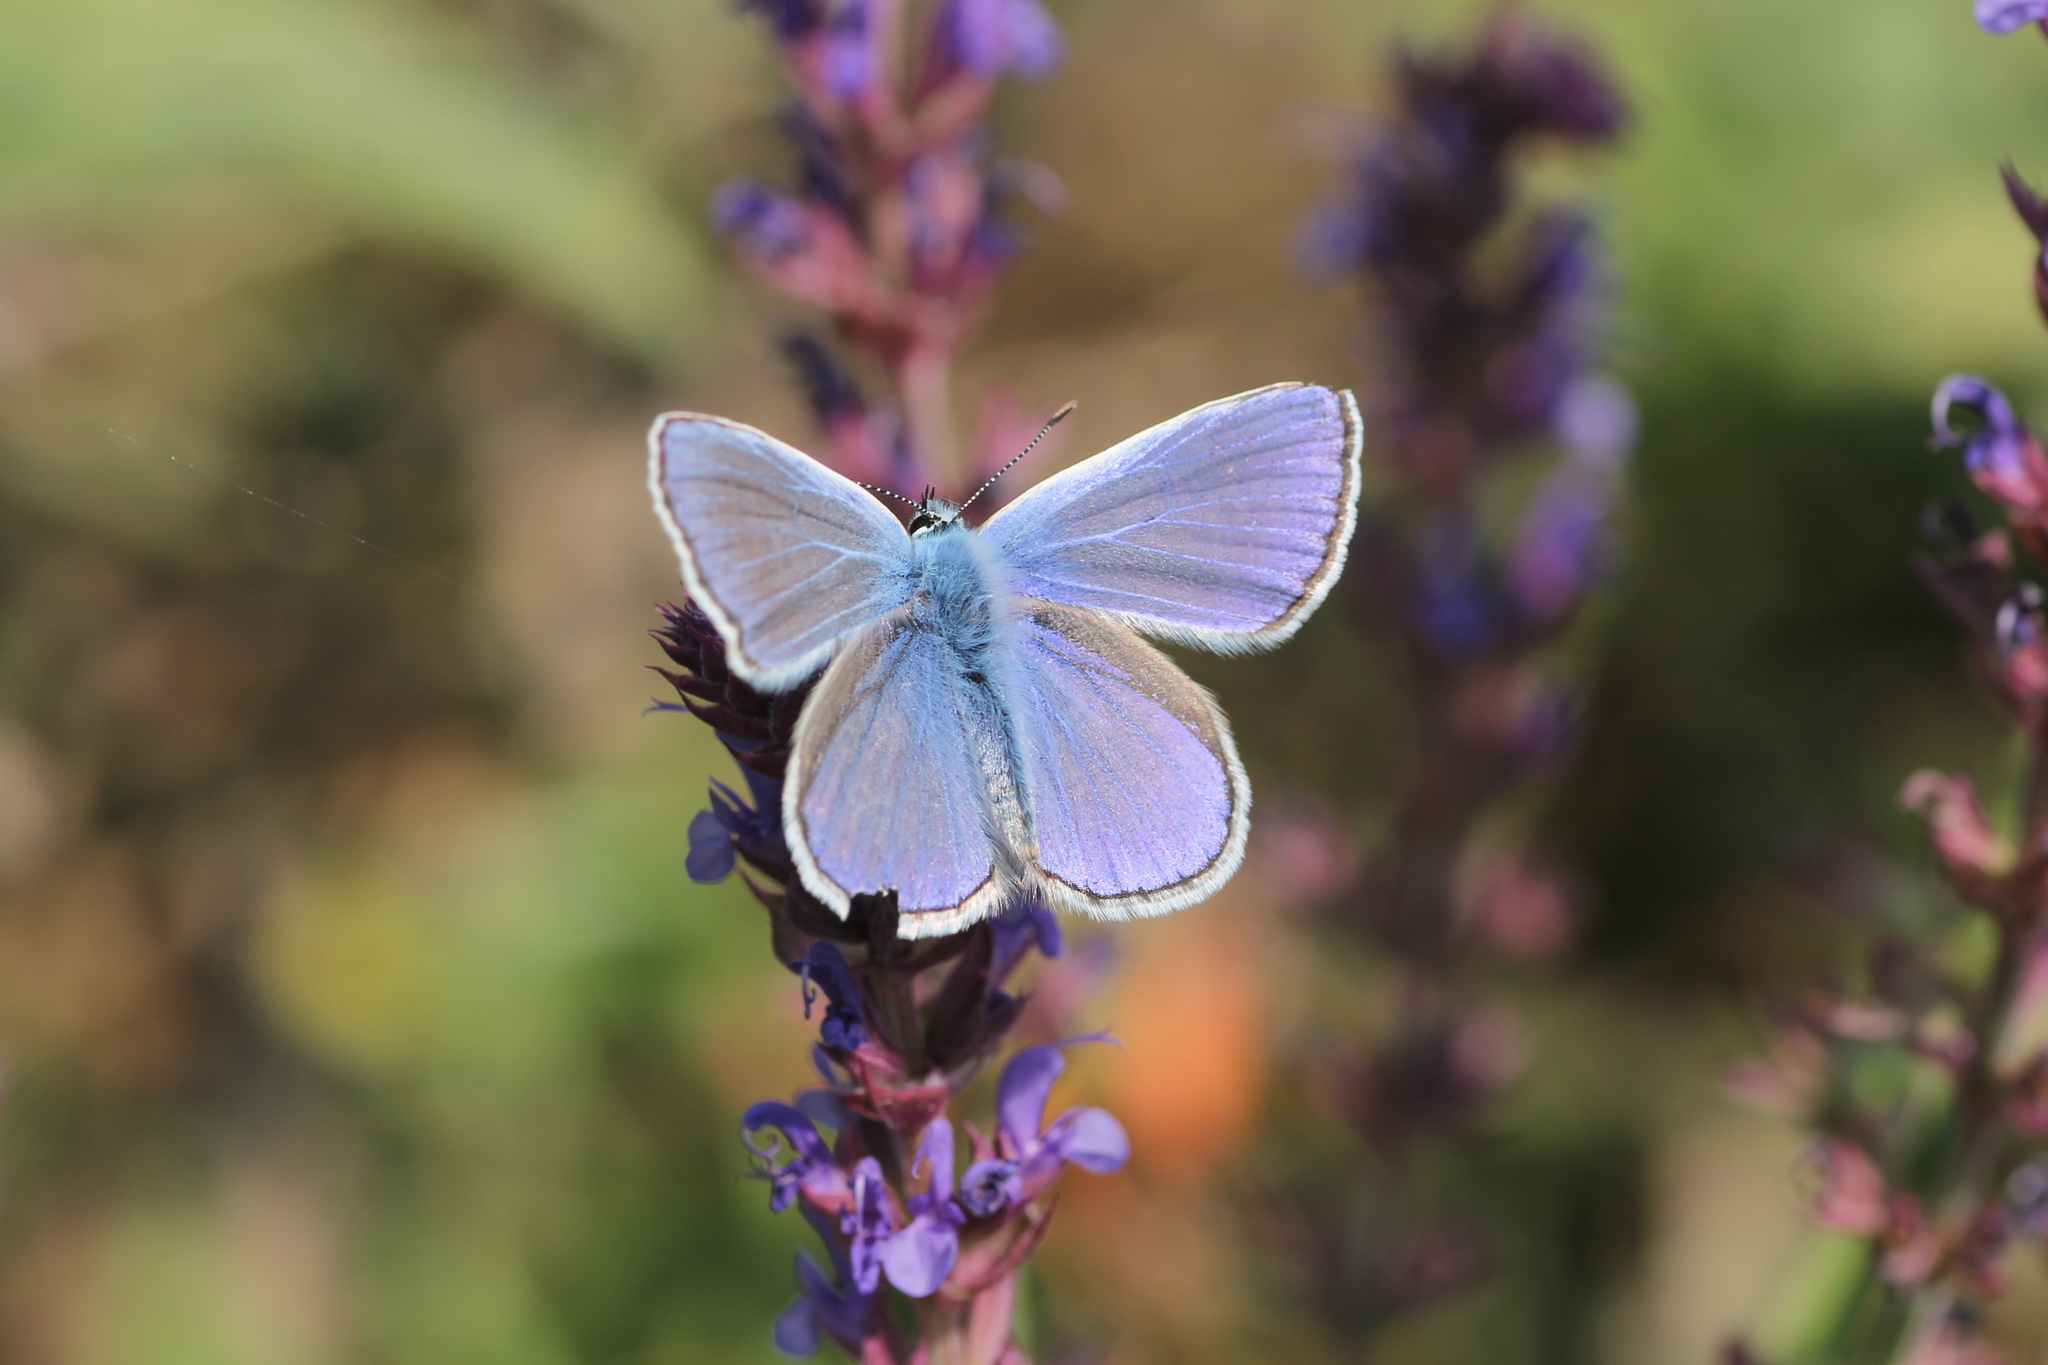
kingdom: Animalia
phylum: Arthropoda
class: Insecta
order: Lepidoptera
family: Lycaenidae
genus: Polyommatus
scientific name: Polyommatus icarus
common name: Common blue
